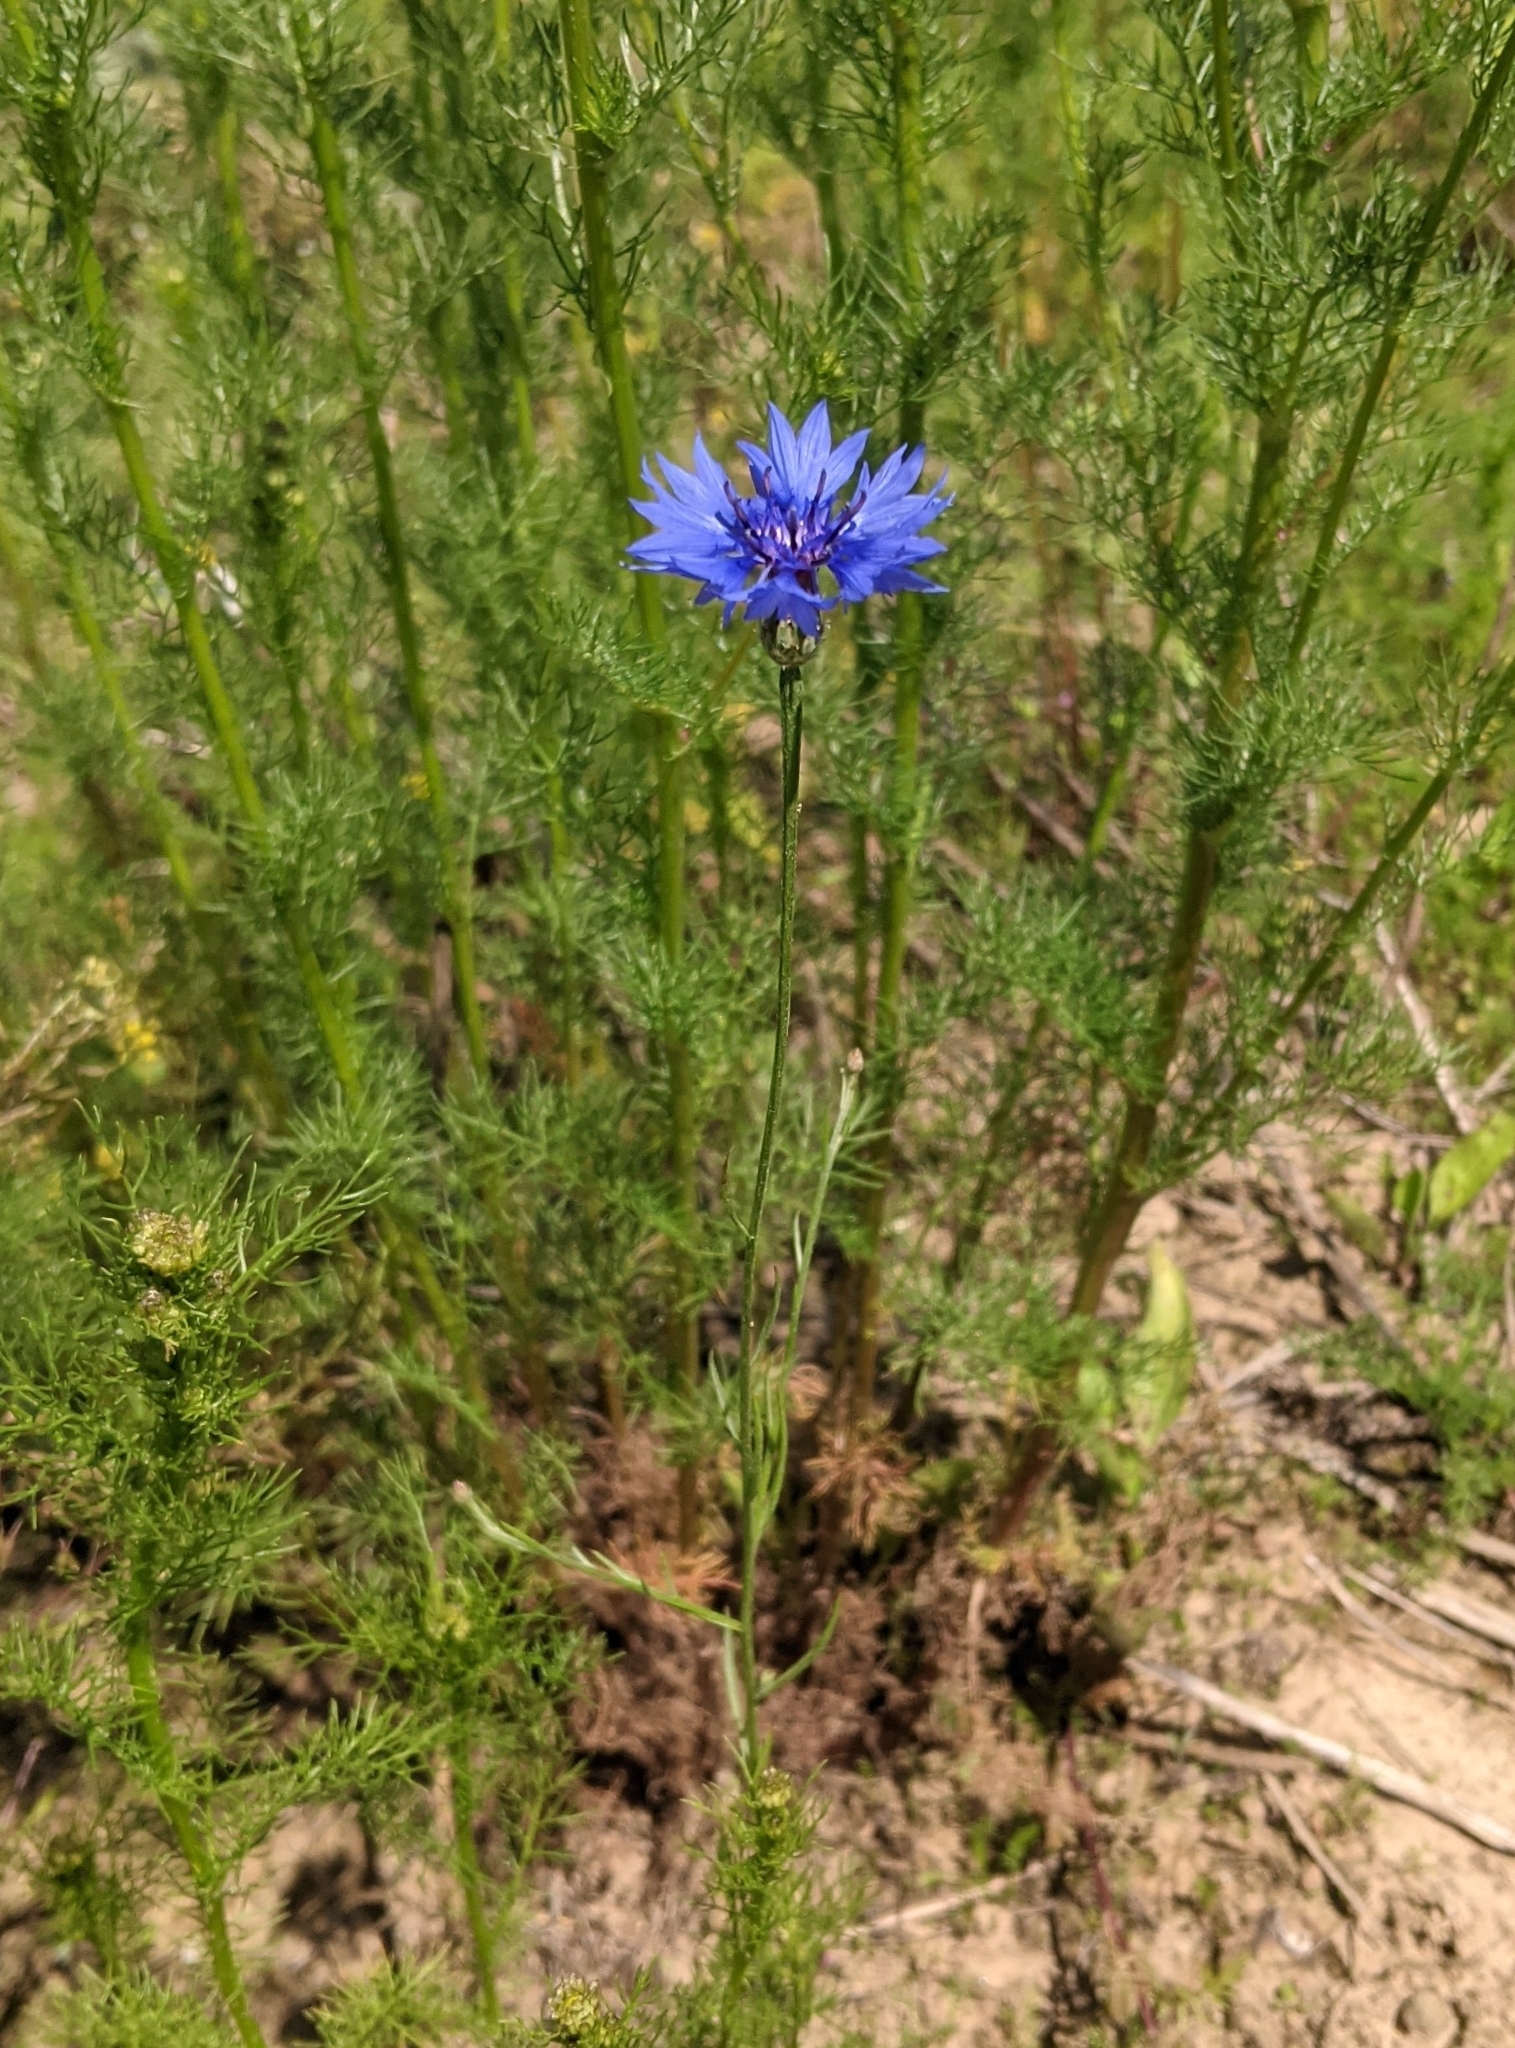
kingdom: Plantae
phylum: Tracheophyta
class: Magnoliopsida
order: Asterales
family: Asteraceae
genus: Centaurea
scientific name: Centaurea cyanus
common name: Cornflower
